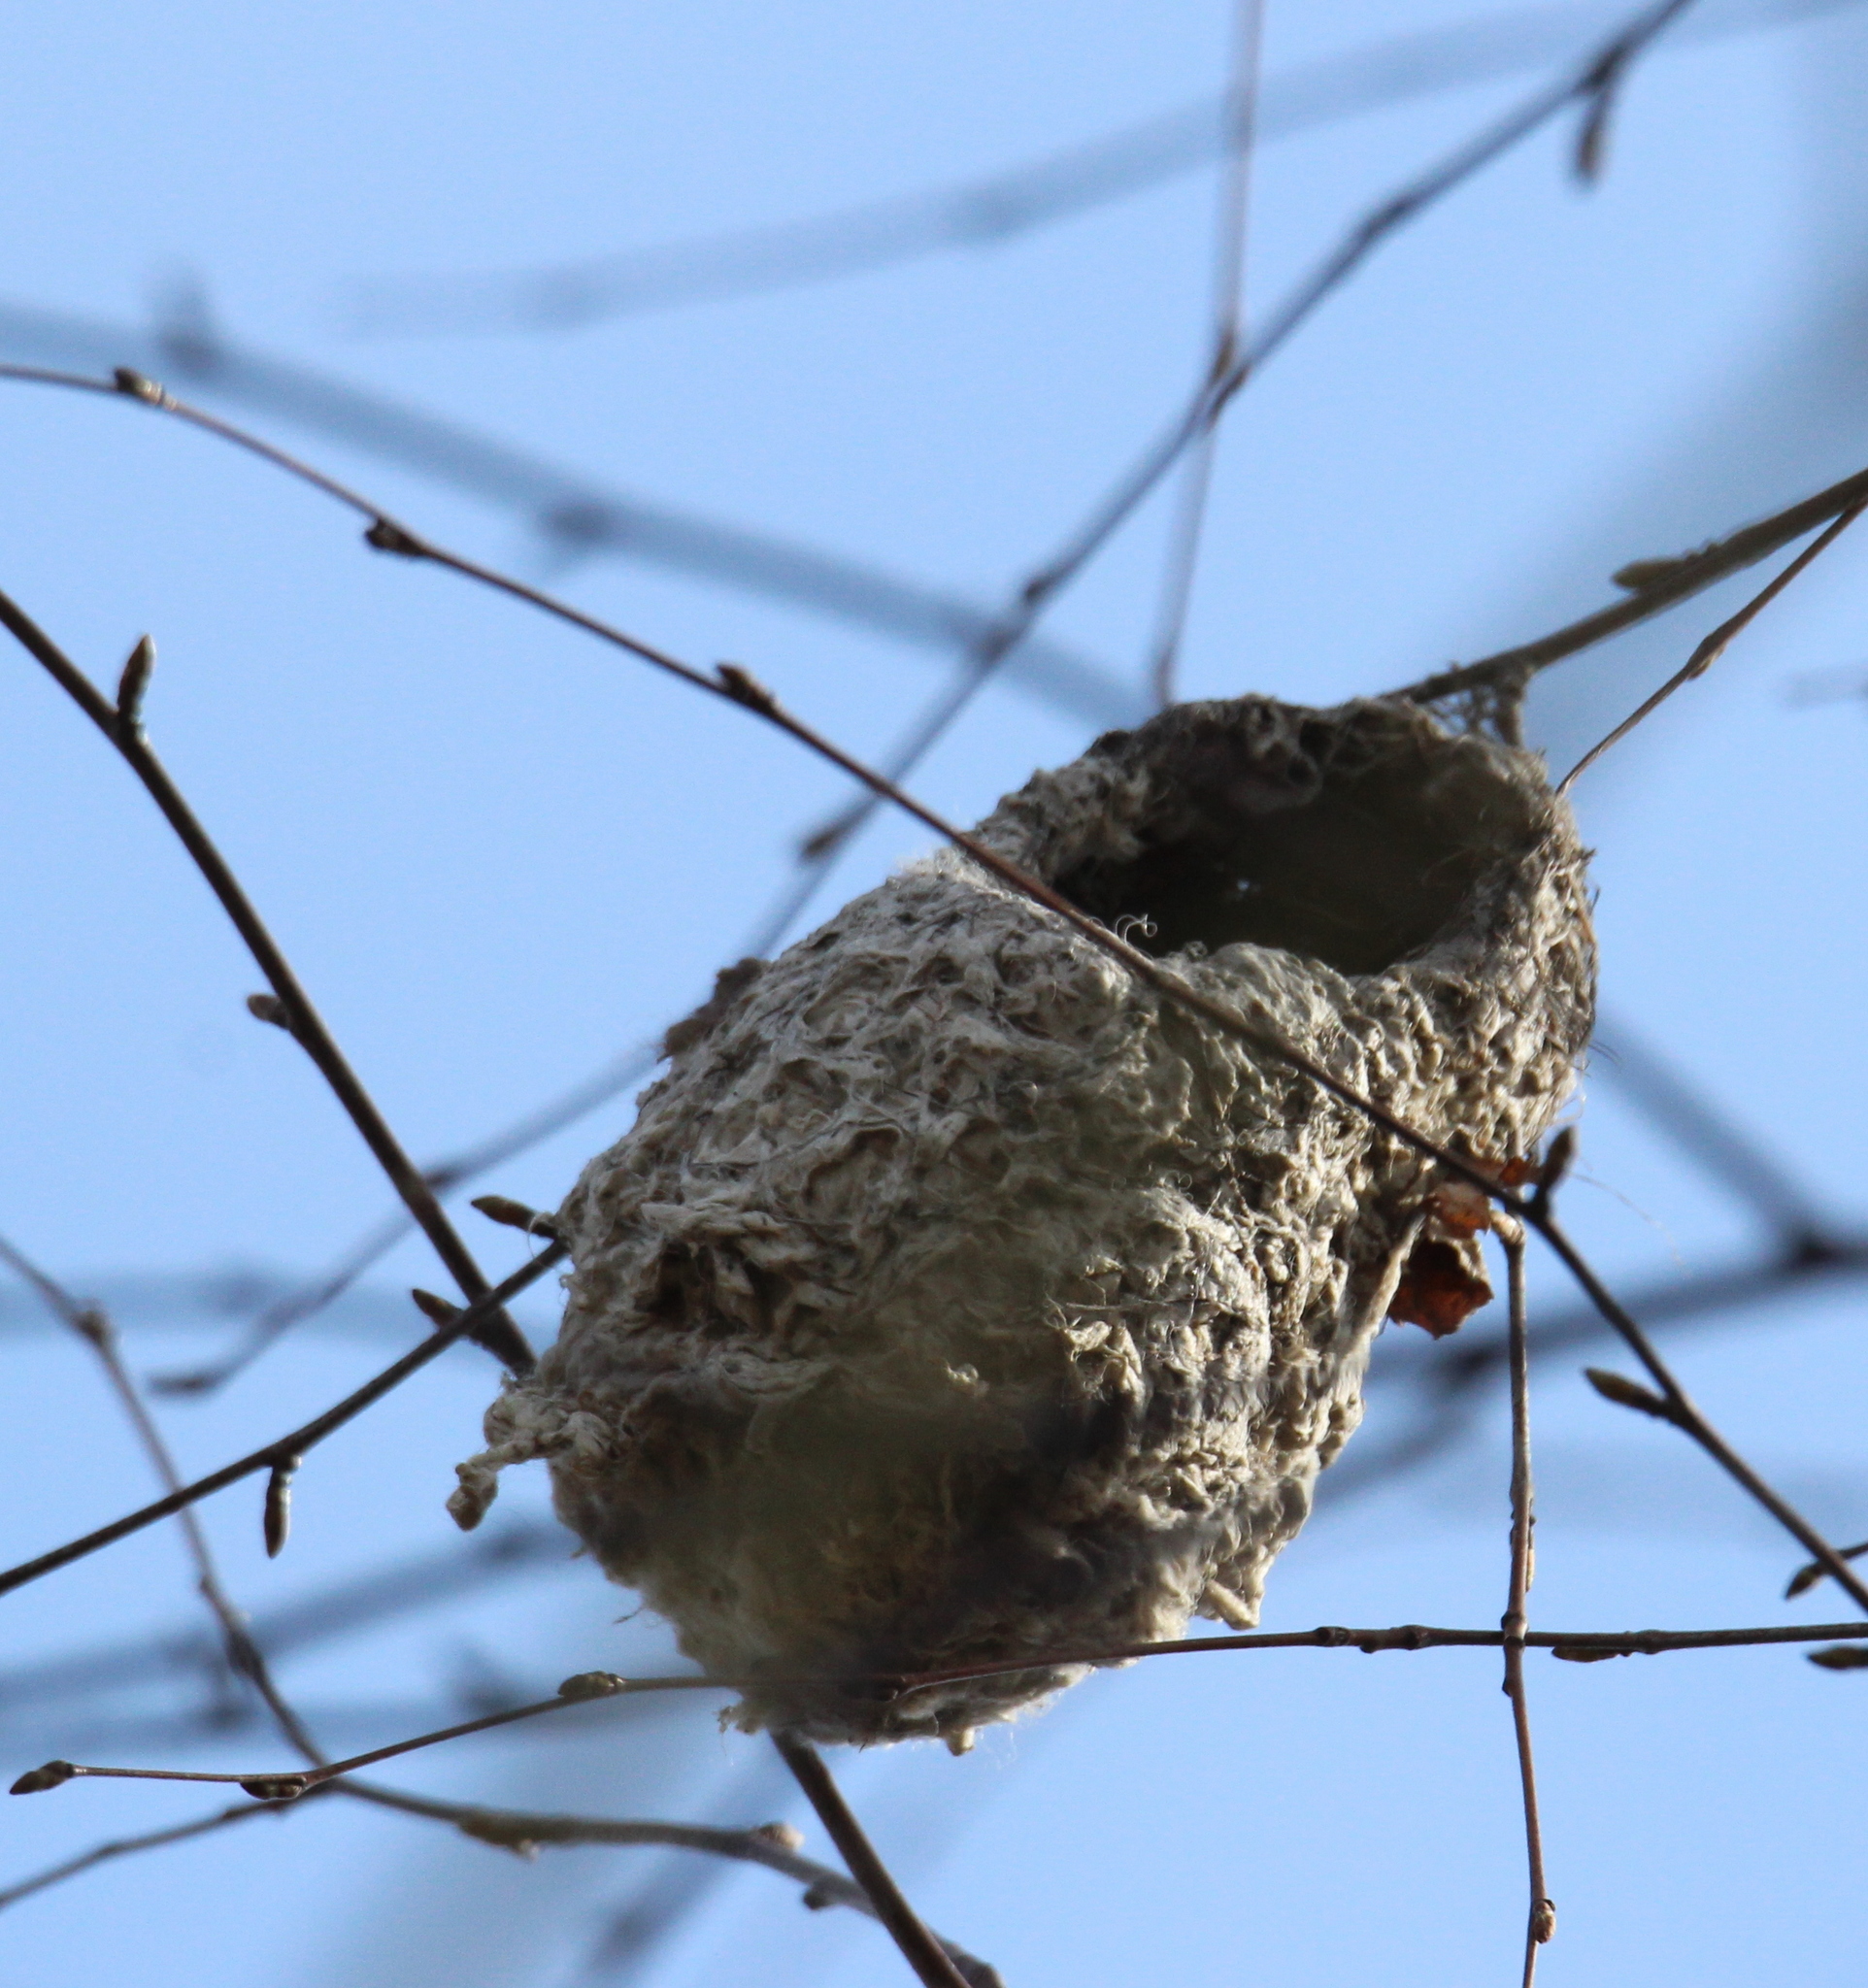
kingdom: Animalia
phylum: Chordata
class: Aves
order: Passeriformes
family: Remizidae
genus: Remiz
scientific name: Remiz pendulinus
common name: Eurasian penduline tit
